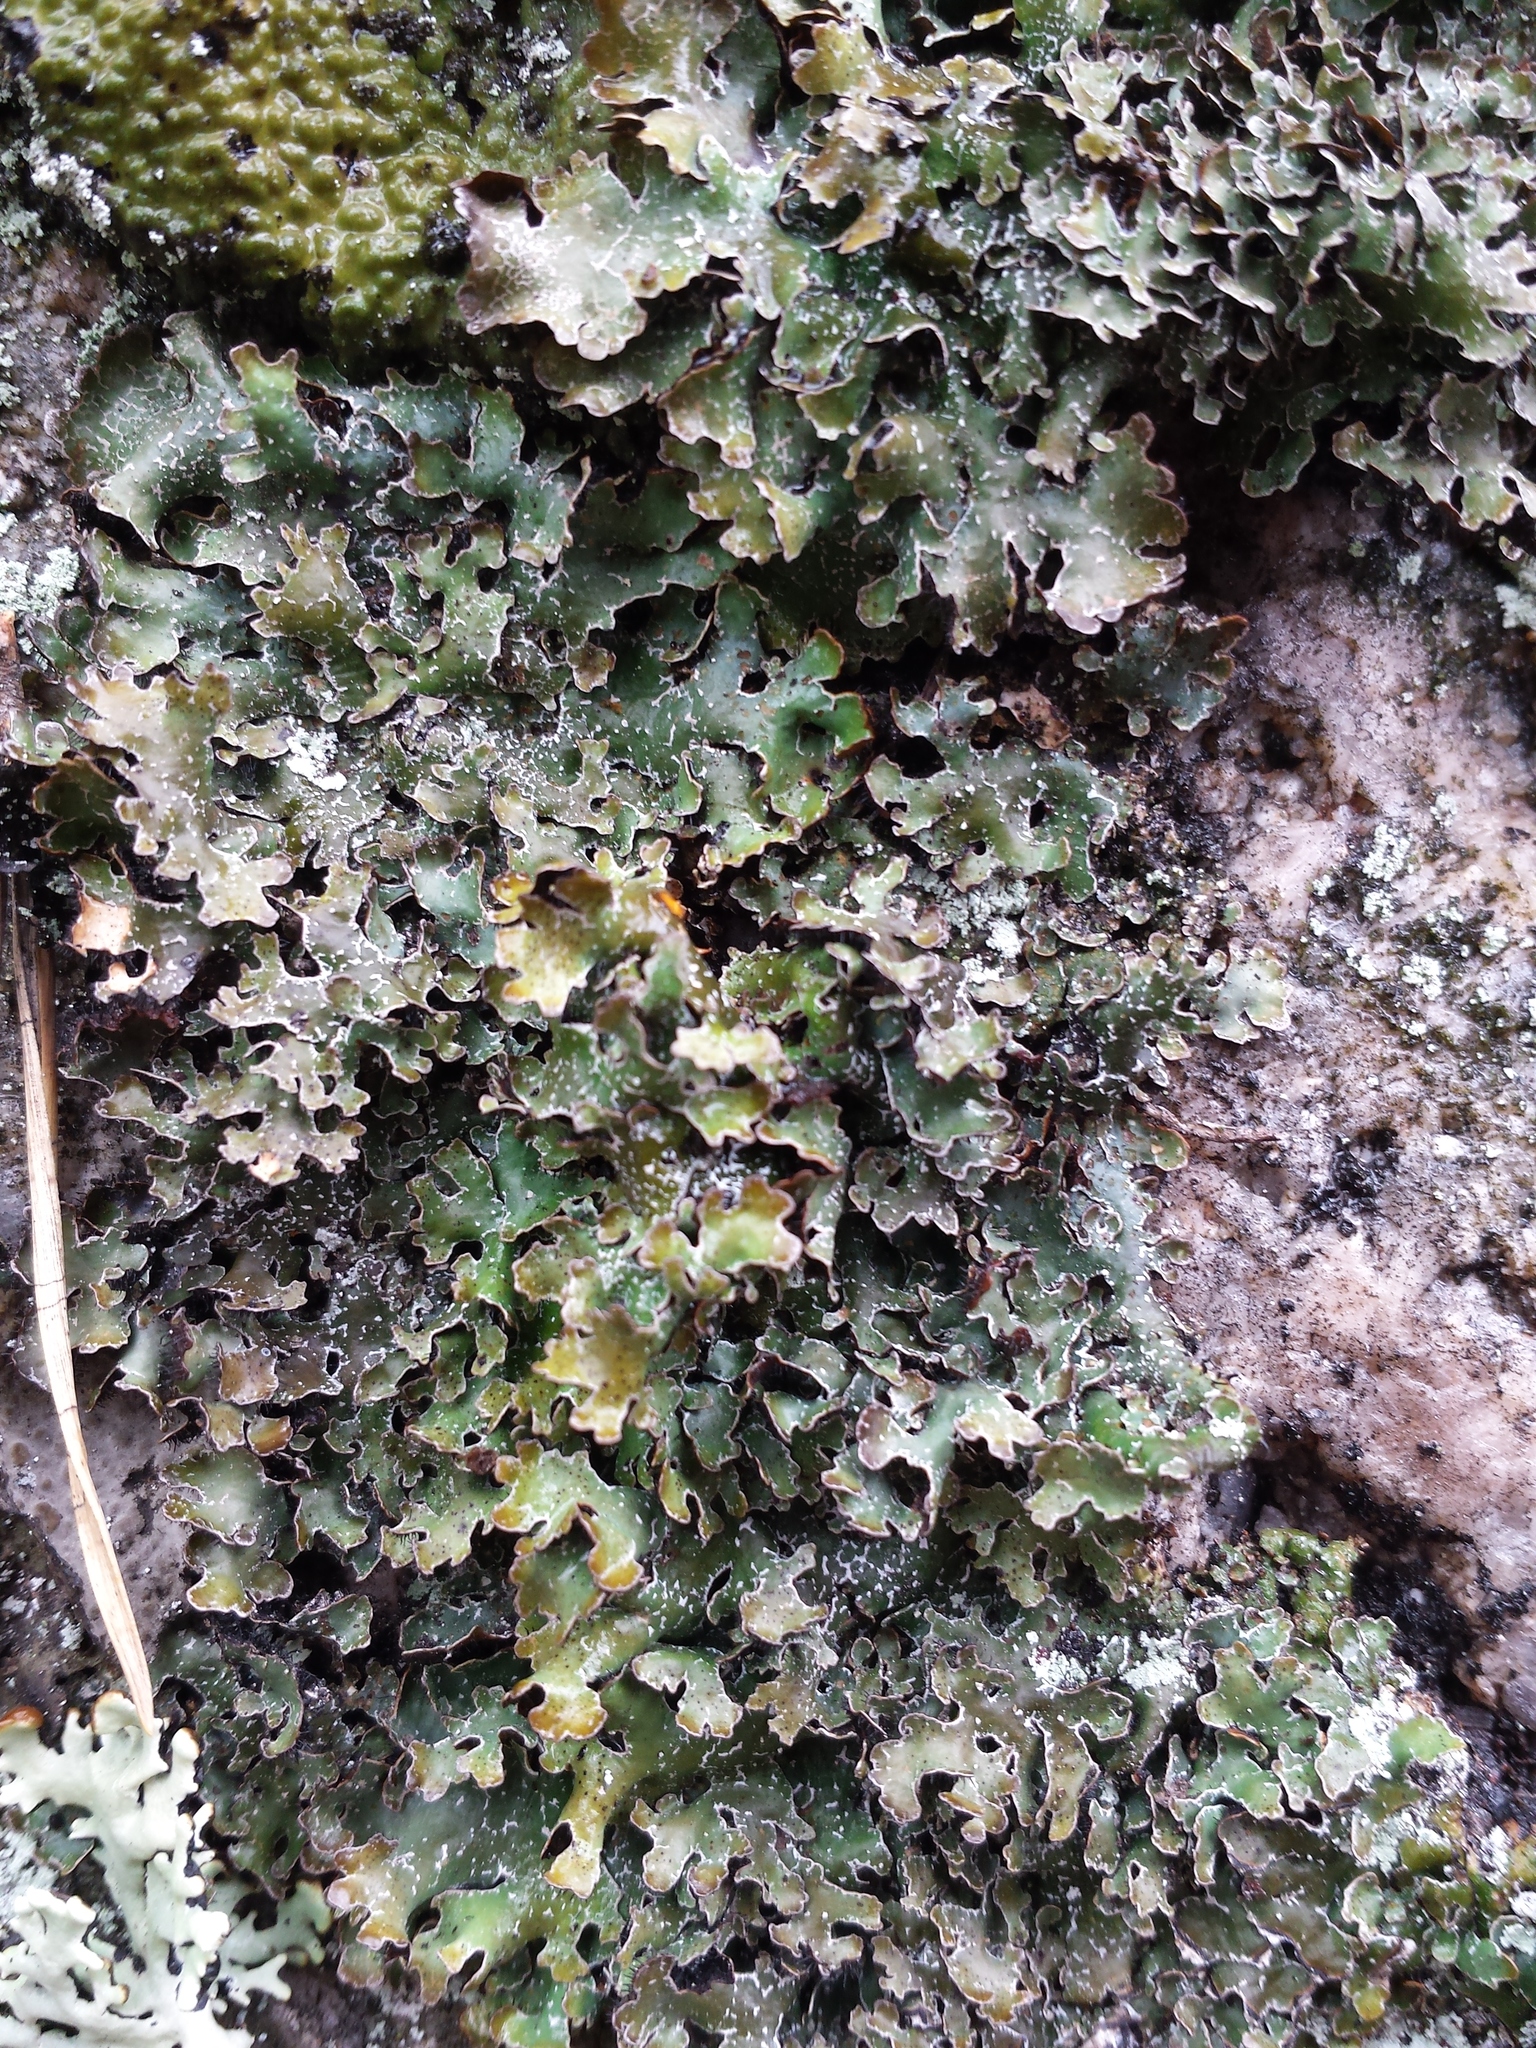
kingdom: Fungi
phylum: Ascomycota
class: Lecanoromycetes
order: Lecanorales
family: Parmeliaceae
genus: Parmelia
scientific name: Parmelia omphalodes
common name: Smoky crottle
